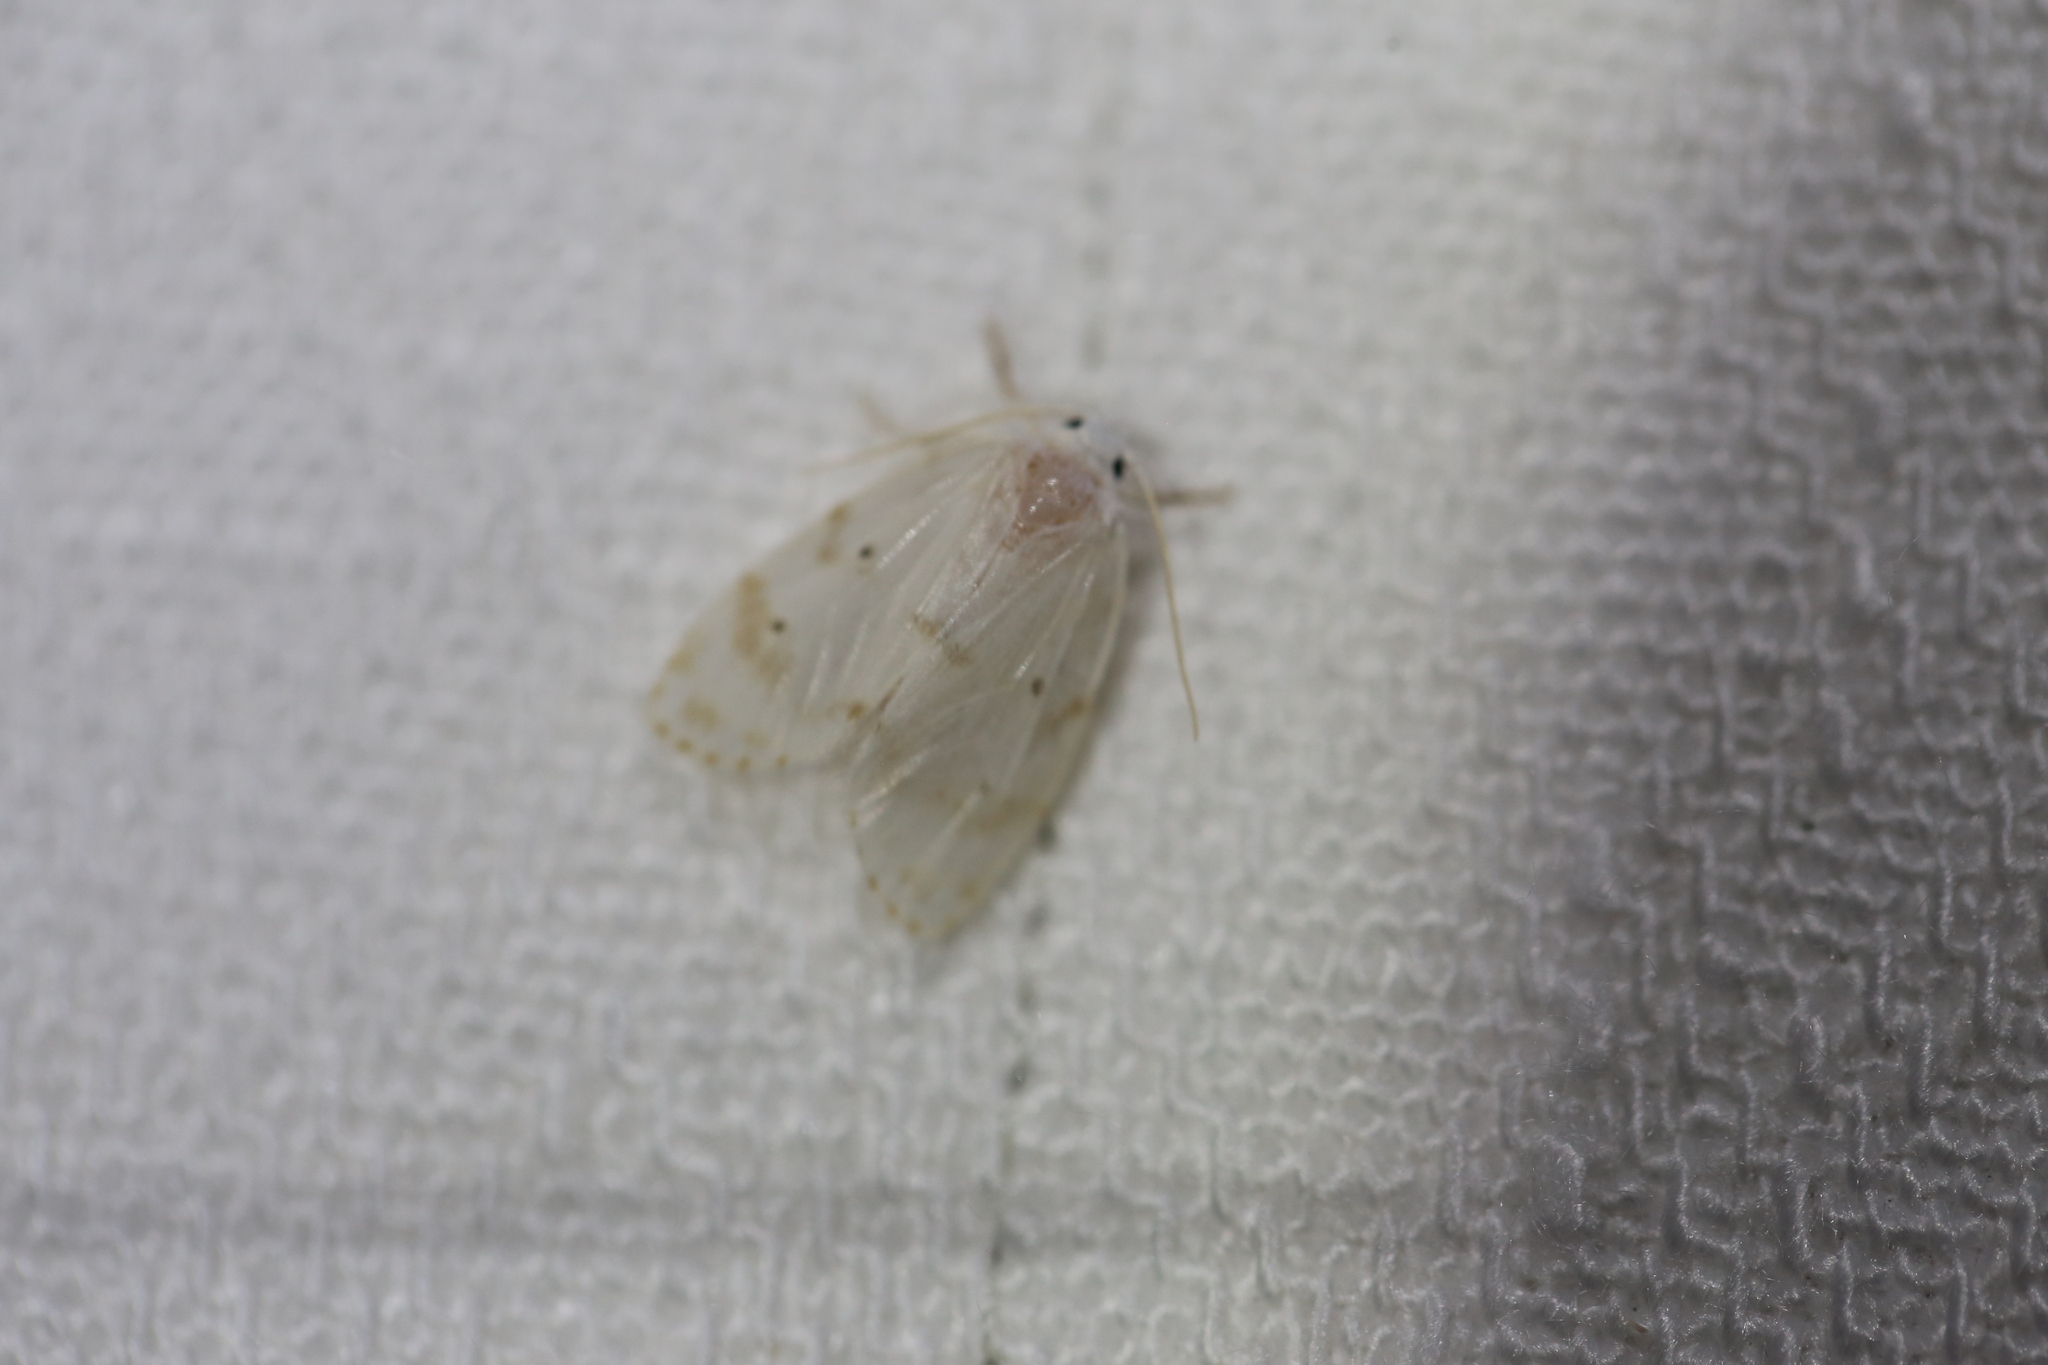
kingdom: Animalia
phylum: Arthropoda
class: Insecta
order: Lepidoptera
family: Erebidae
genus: Schistophleps
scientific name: Schistophleps albida
